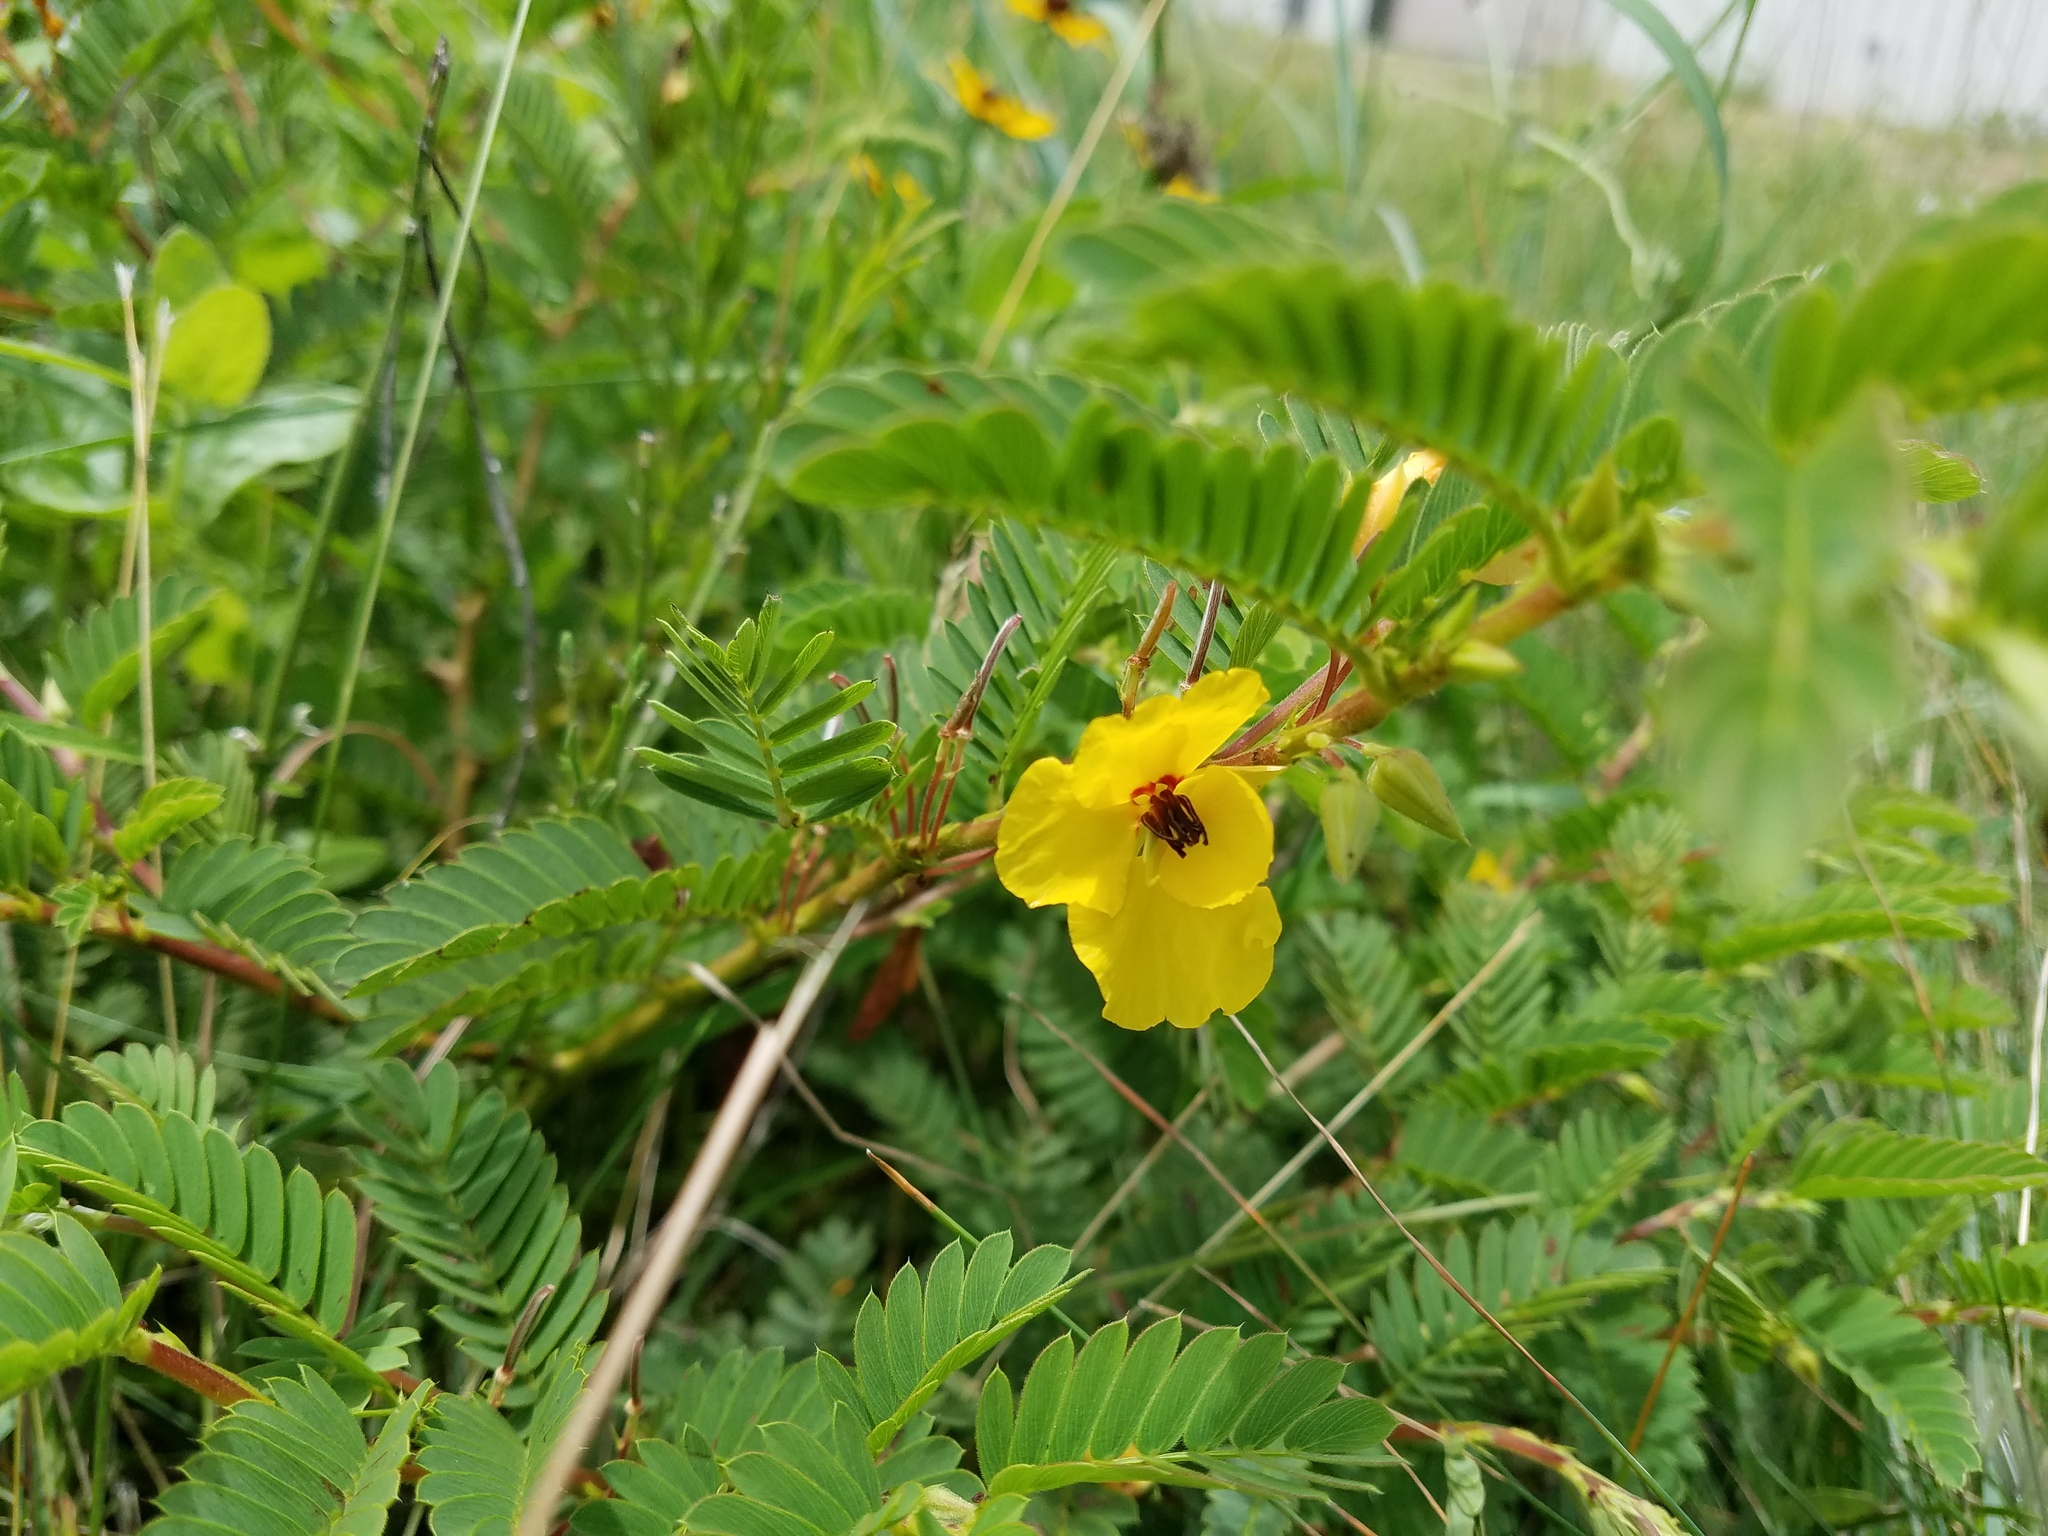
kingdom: Plantae
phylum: Tracheophyta
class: Magnoliopsida
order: Fabales
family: Fabaceae
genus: Chamaecrista
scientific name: Chamaecrista fasciculata
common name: Golden cassia
